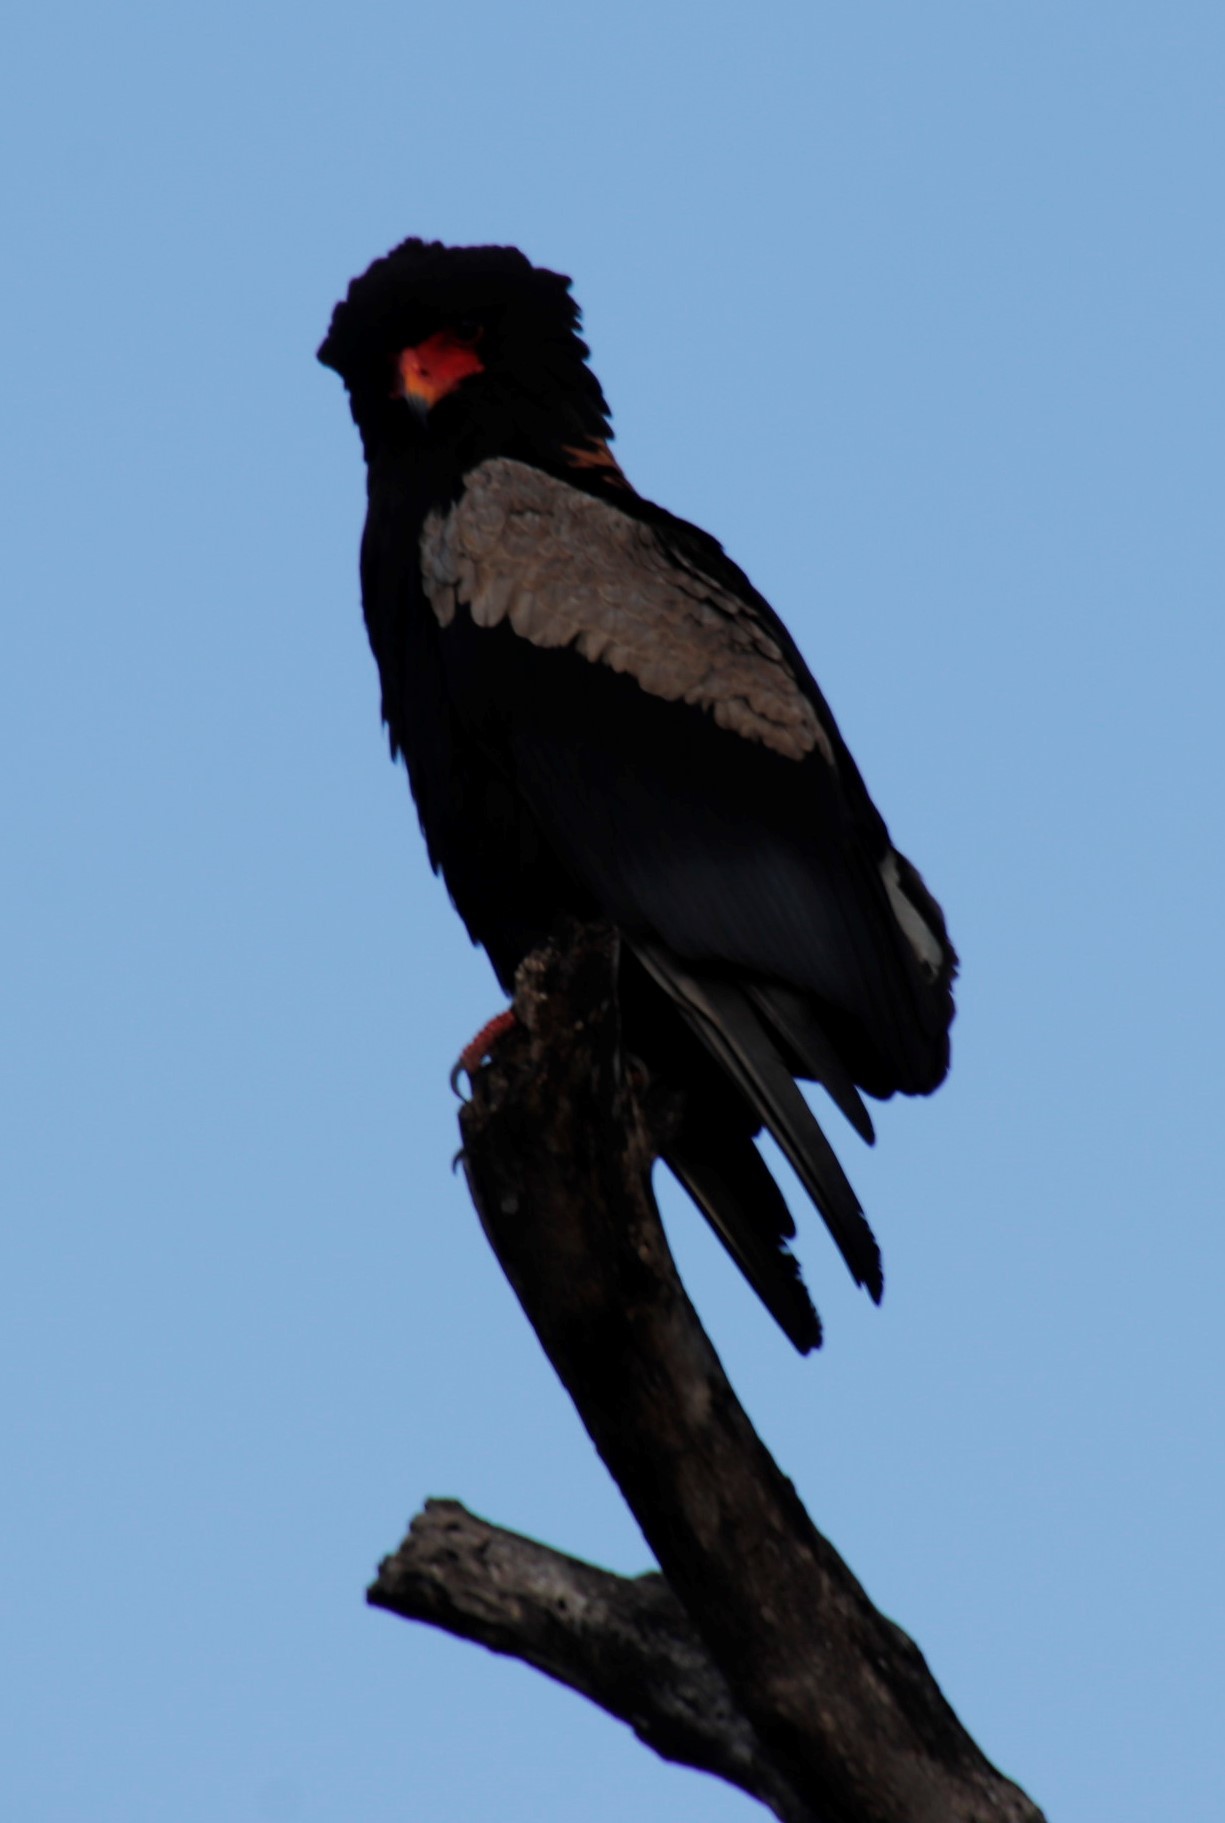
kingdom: Animalia
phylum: Chordata
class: Aves
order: Accipitriformes
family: Accipitridae
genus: Terathopius
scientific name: Terathopius ecaudatus
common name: Bateleur
